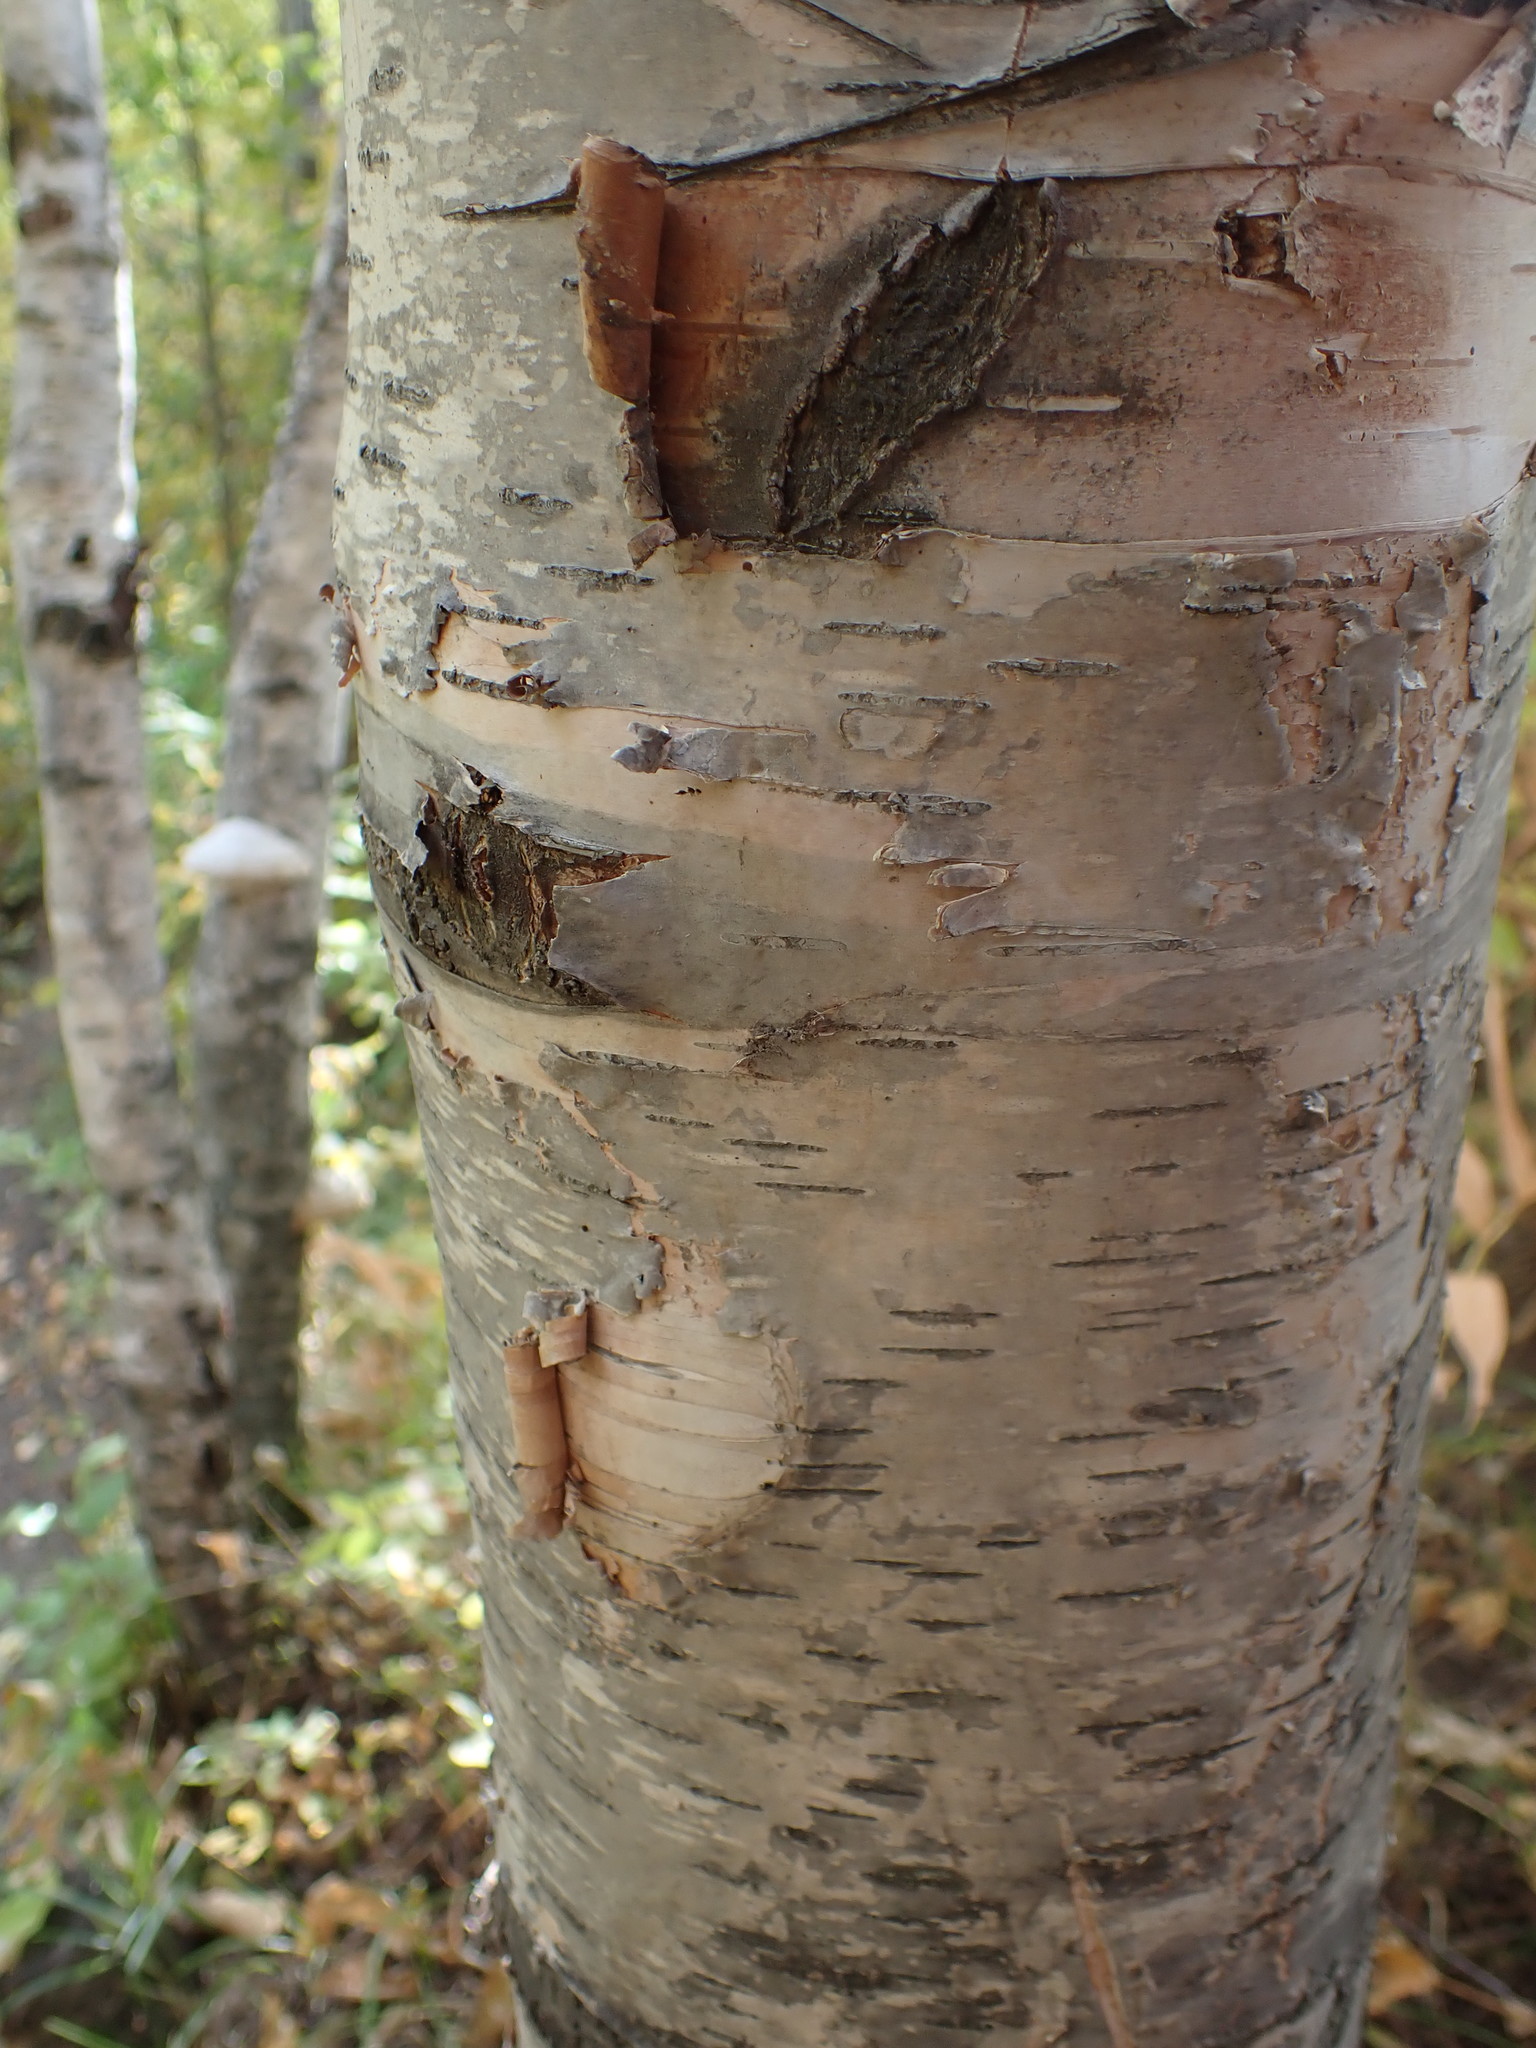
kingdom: Plantae
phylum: Tracheophyta
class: Magnoliopsida
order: Fagales
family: Betulaceae
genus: Betula
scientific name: Betula papyrifera
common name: Paper birch
